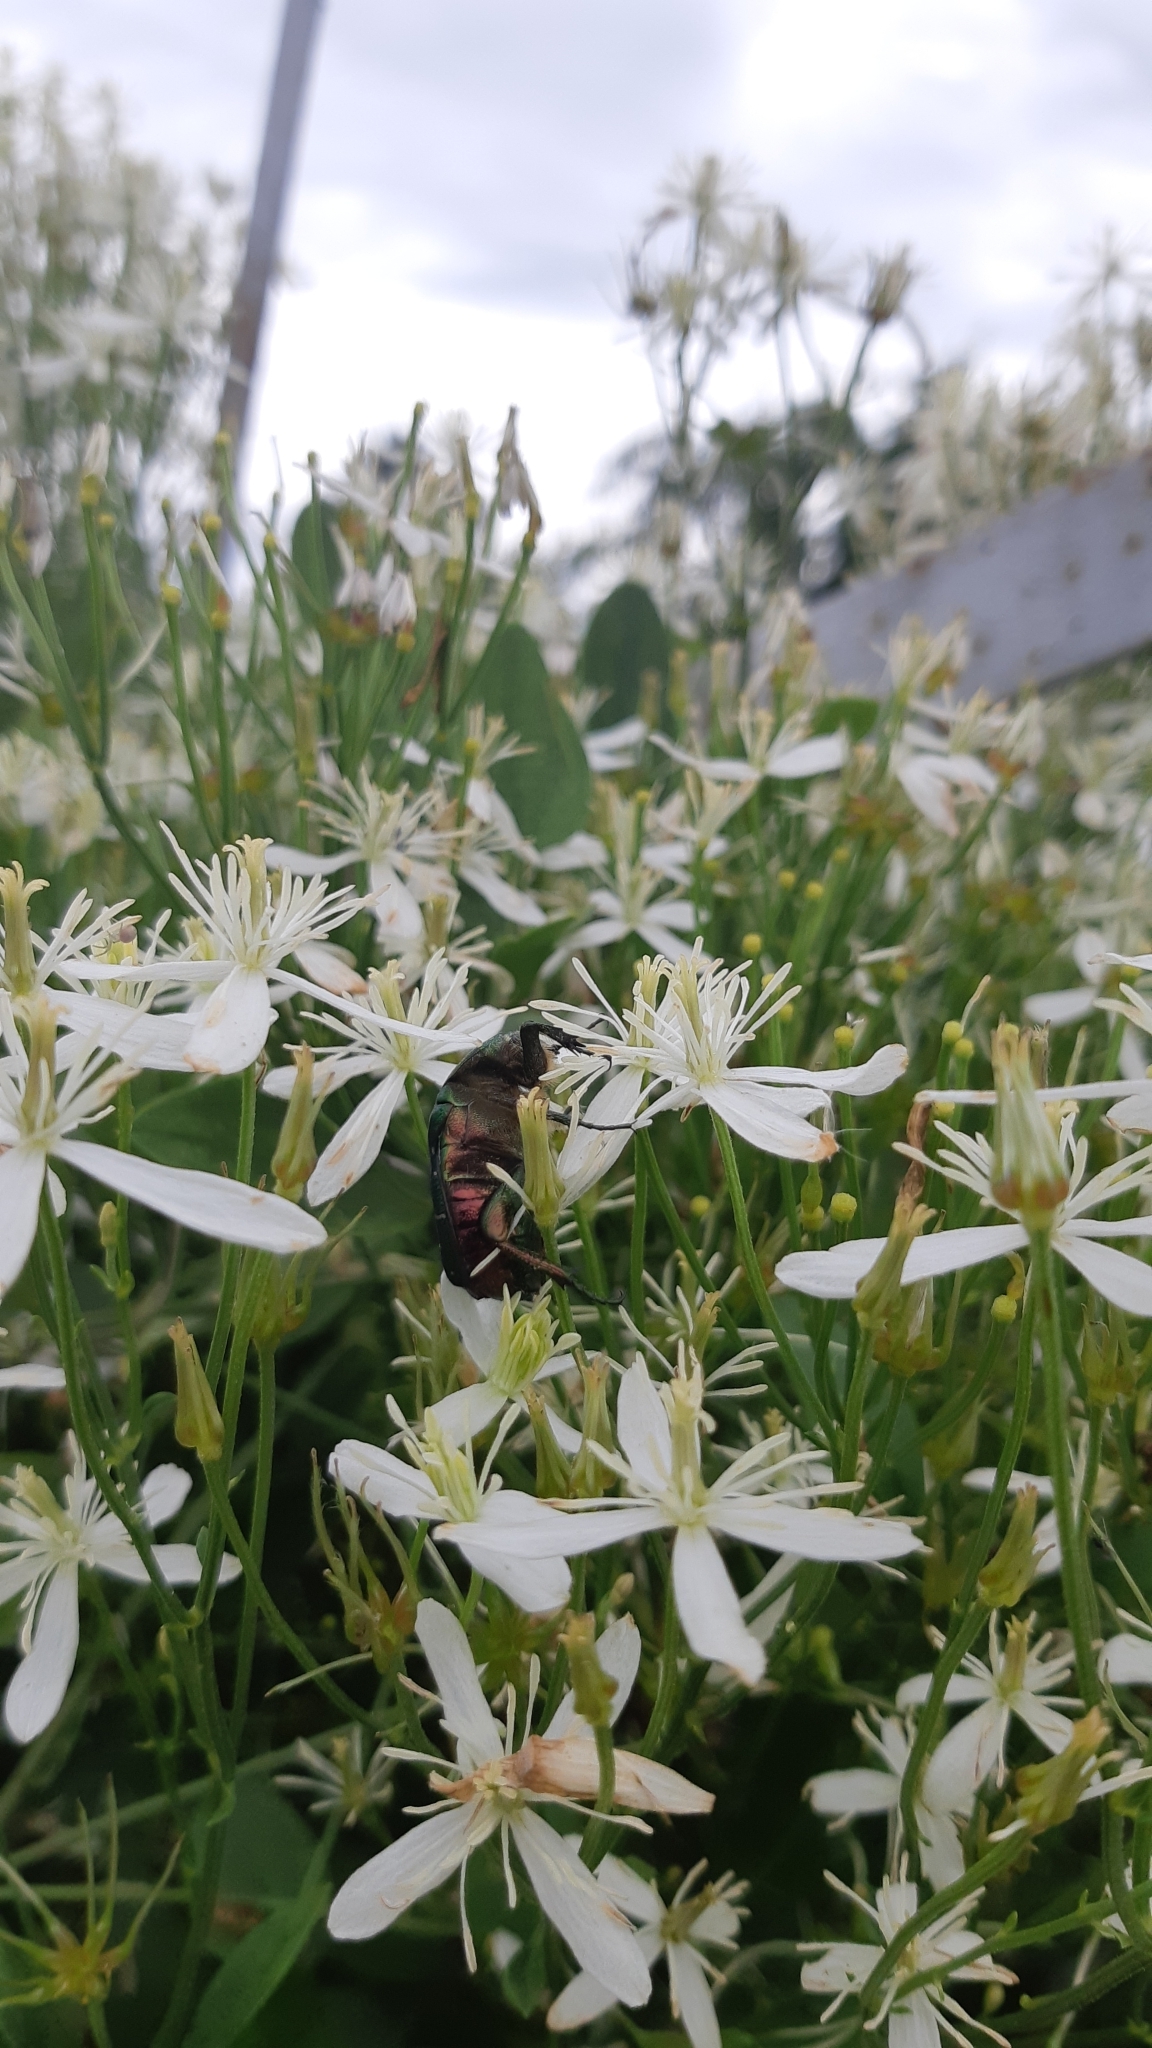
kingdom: Animalia
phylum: Arthropoda
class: Insecta
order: Coleoptera
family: Scarabaeidae
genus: Cetonia
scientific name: Cetonia aurata
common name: Rose chafer
